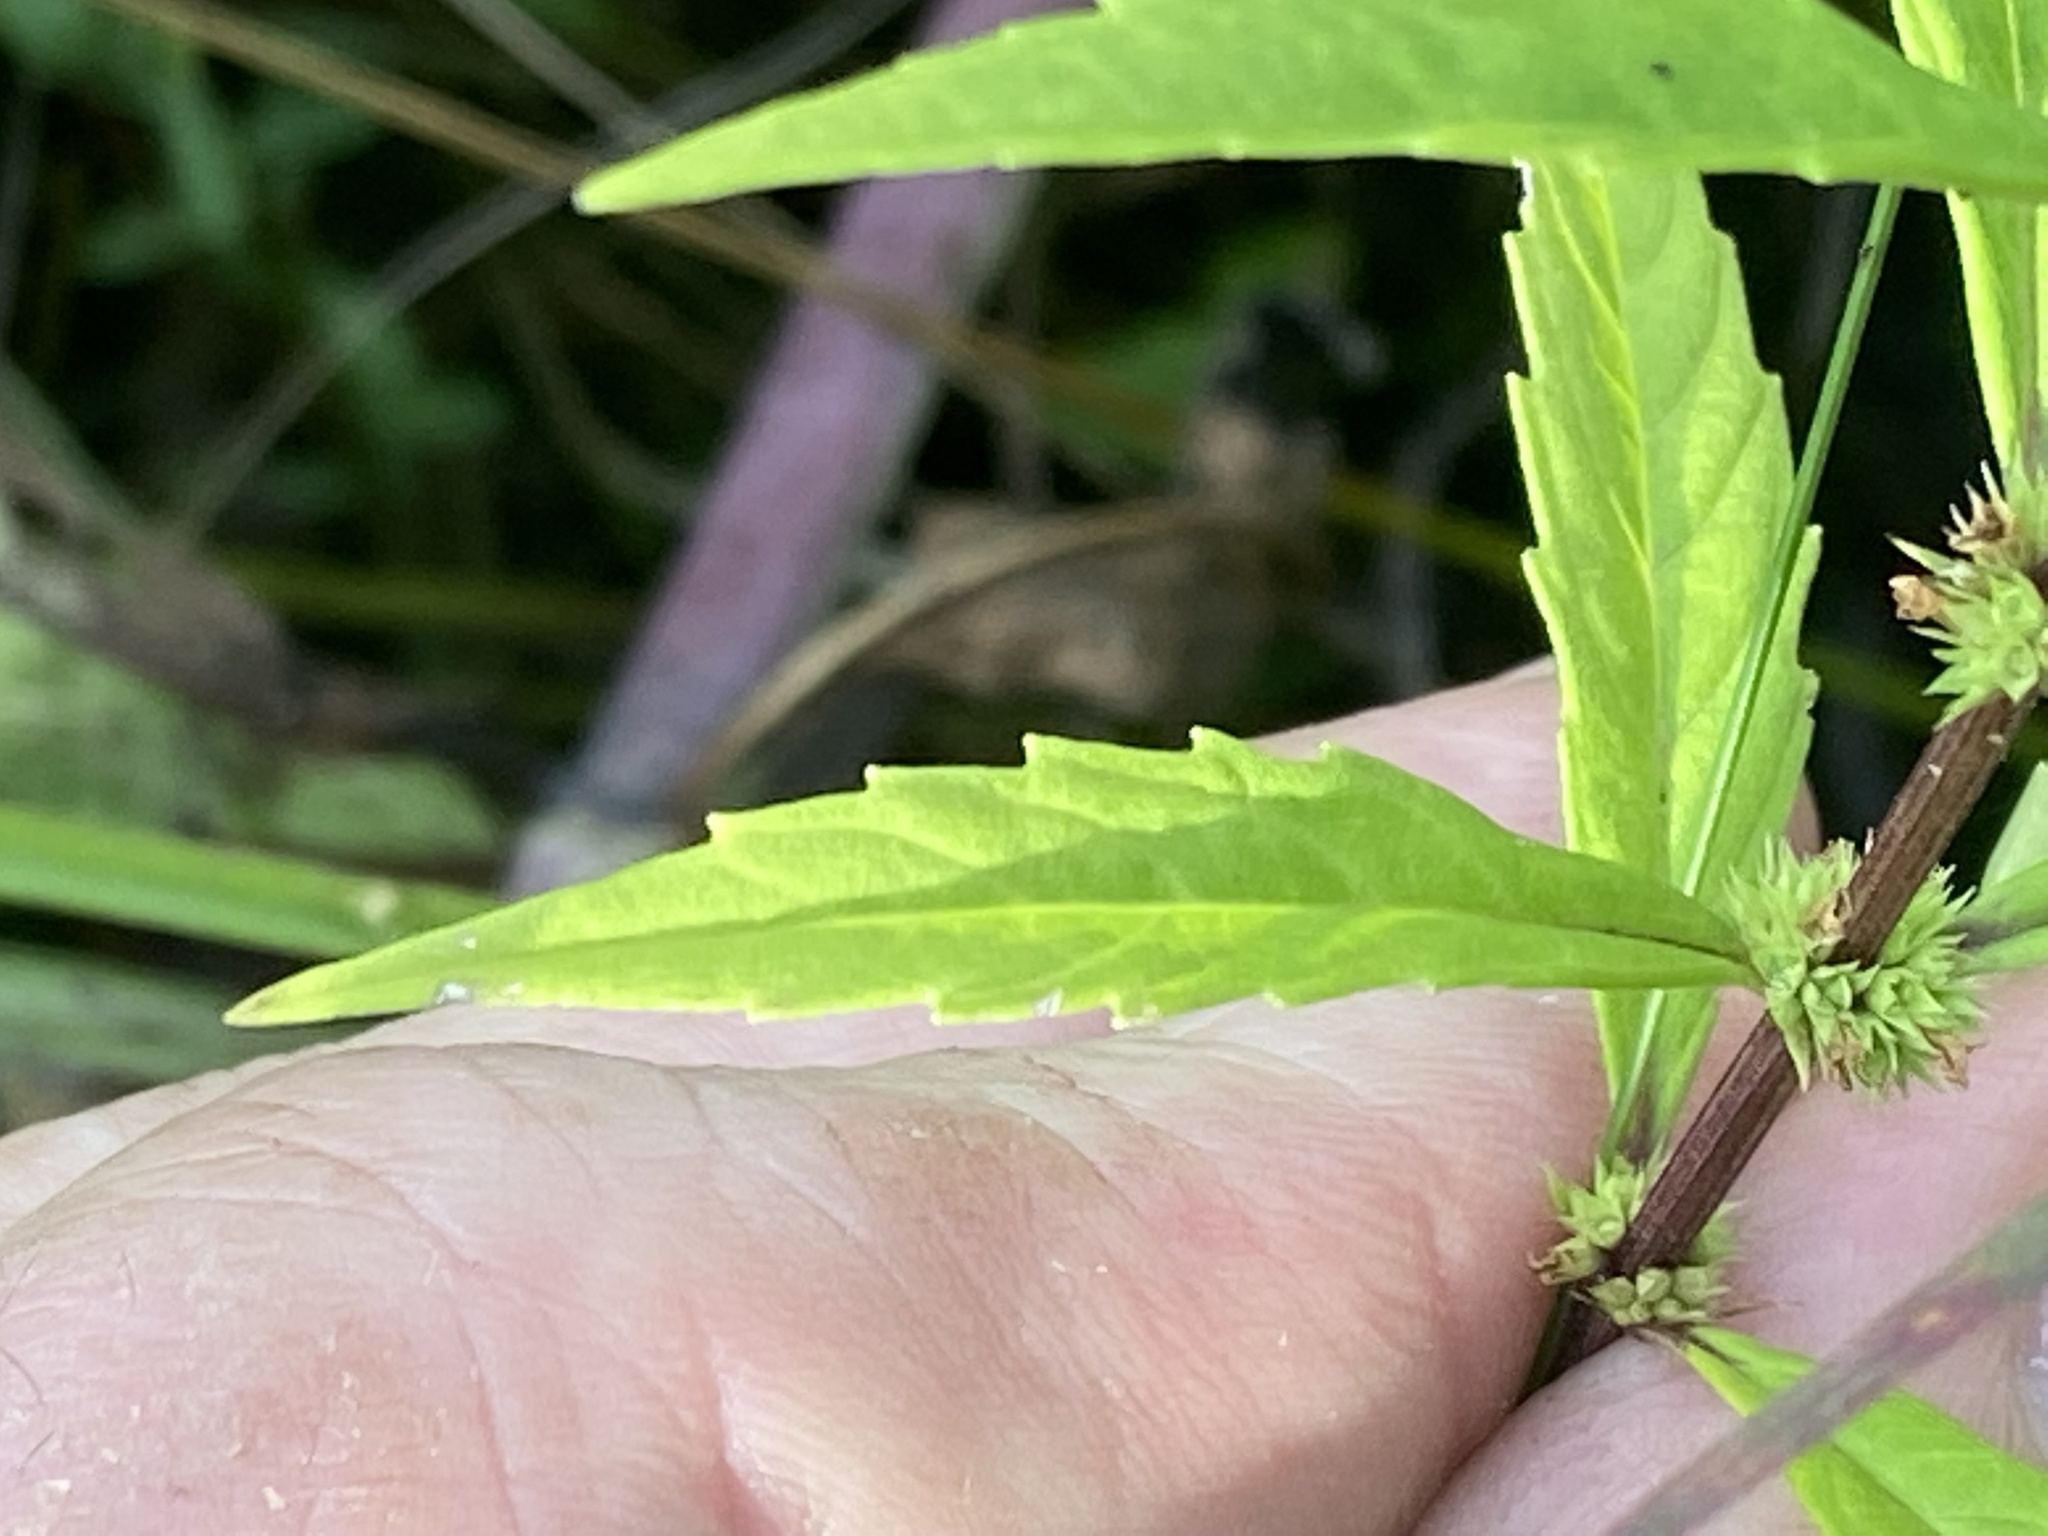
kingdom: Plantae
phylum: Tracheophyta
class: Magnoliopsida
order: Lamiales
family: Lamiaceae
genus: Lycopus
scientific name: Lycopus americanus
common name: American bugleweed
